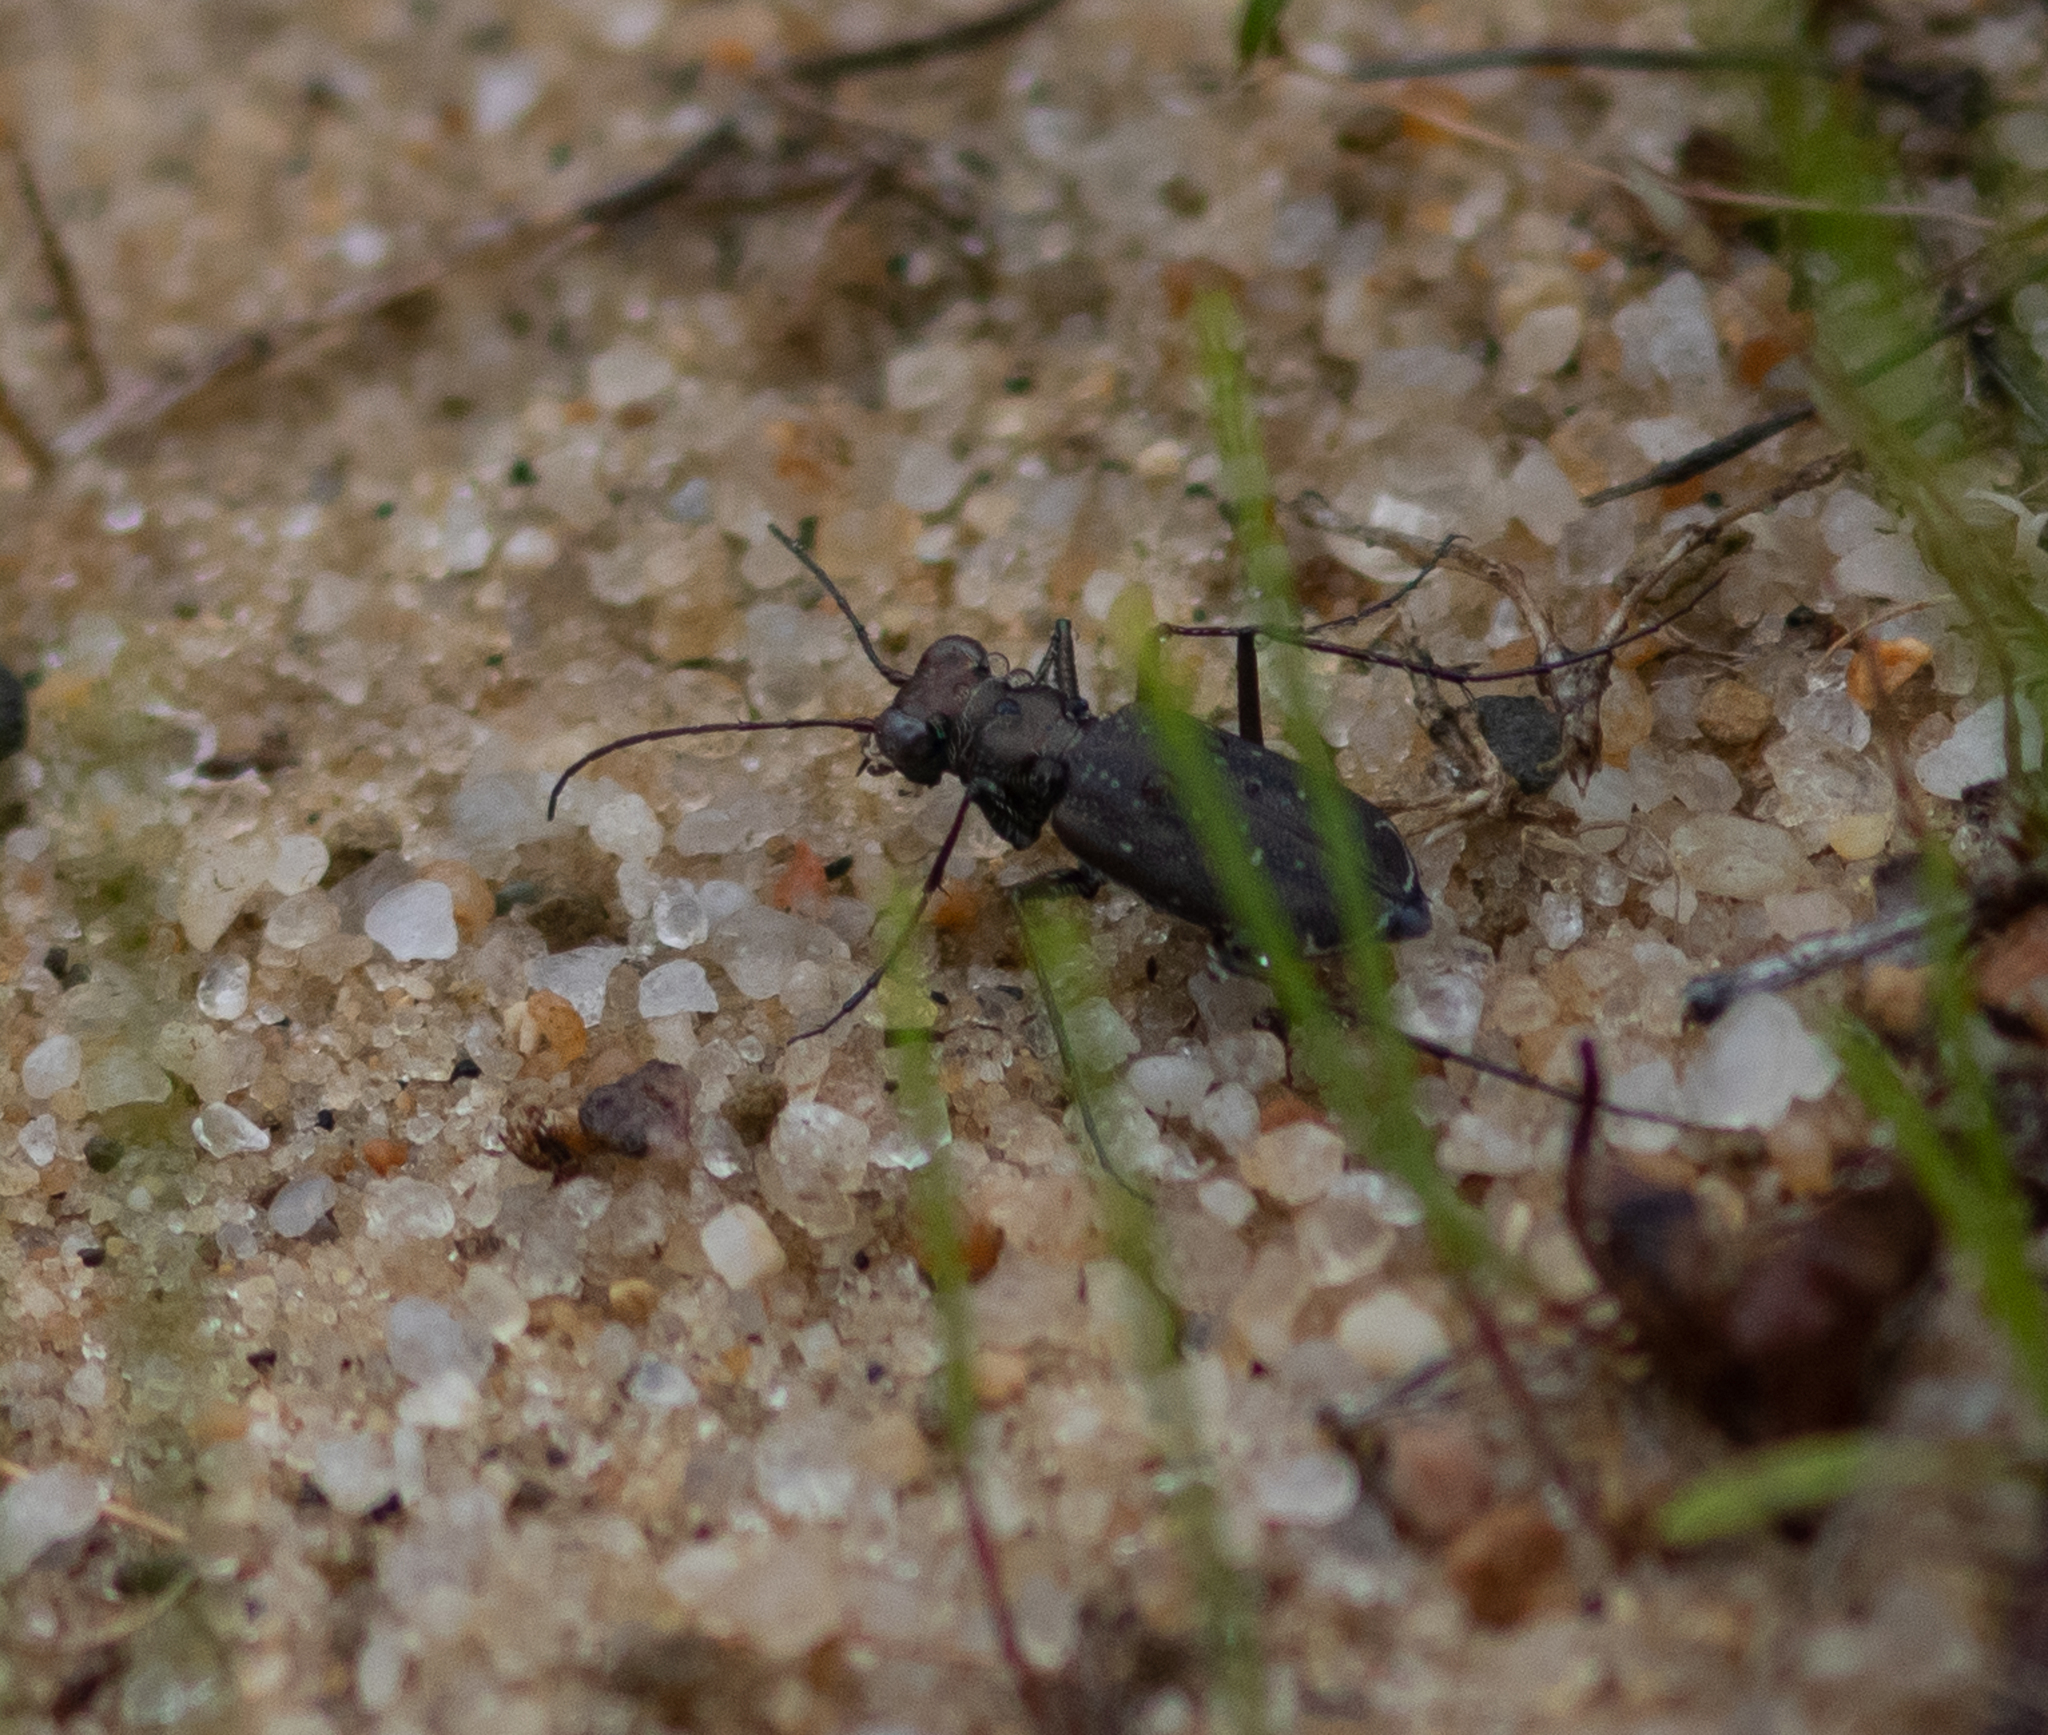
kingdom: Animalia
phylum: Arthropoda
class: Insecta
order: Coleoptera
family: Carabidae
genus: Cicindela
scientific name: Cicindela punctulata
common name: Punctured tiger beetle
